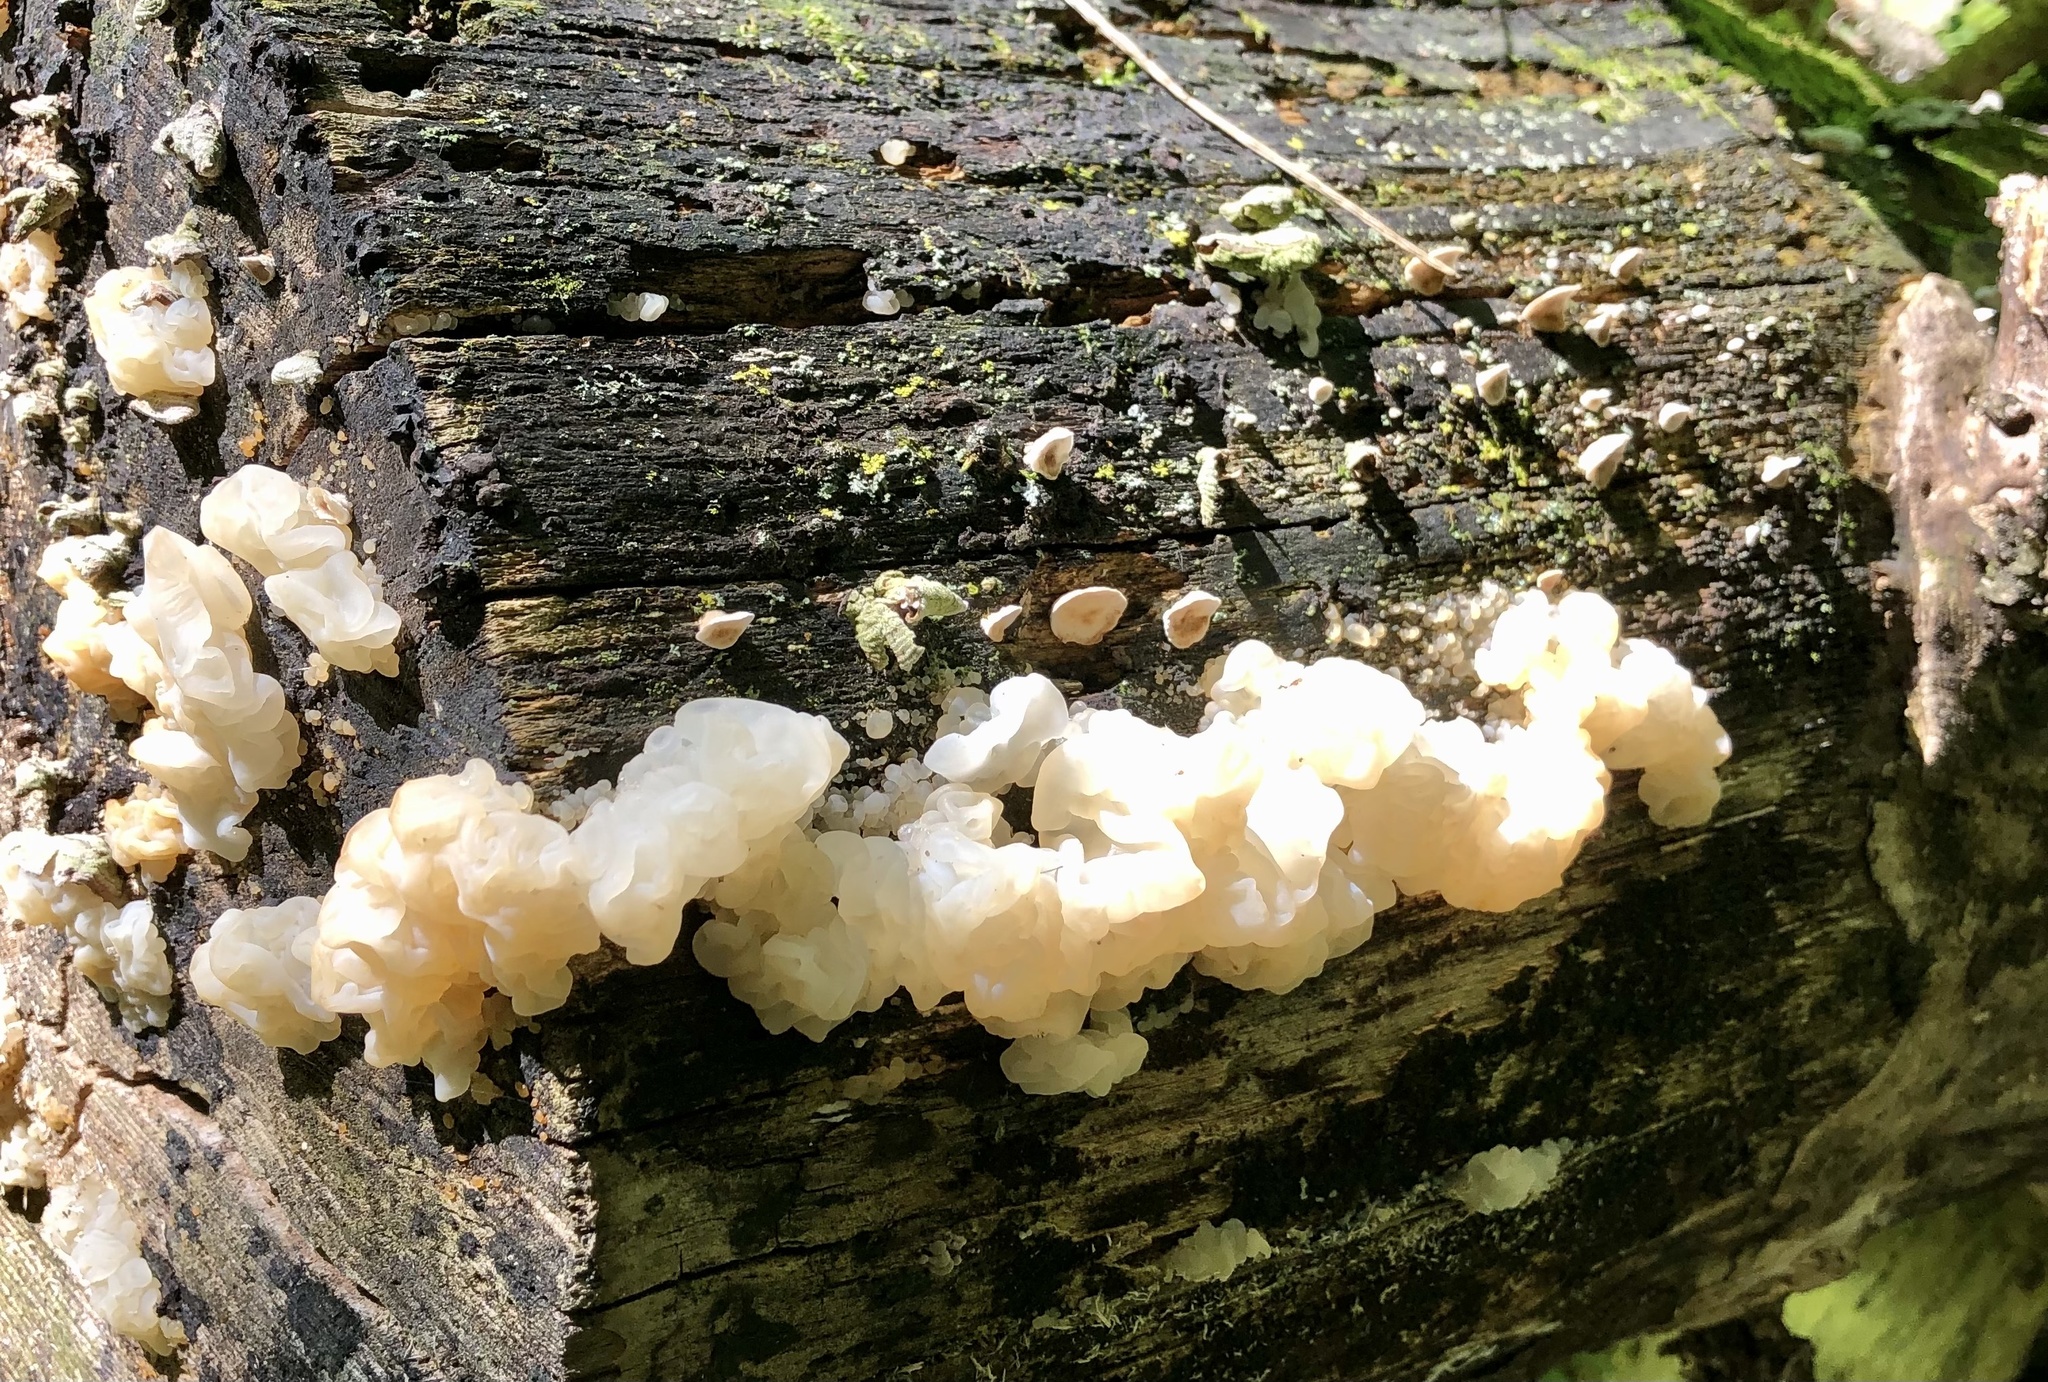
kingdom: Fungi
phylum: Basidiomycota
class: Agaricomycetes
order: Auriculariales
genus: Ductifera
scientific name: Ductifera pululahuana
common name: White jelly fungus
